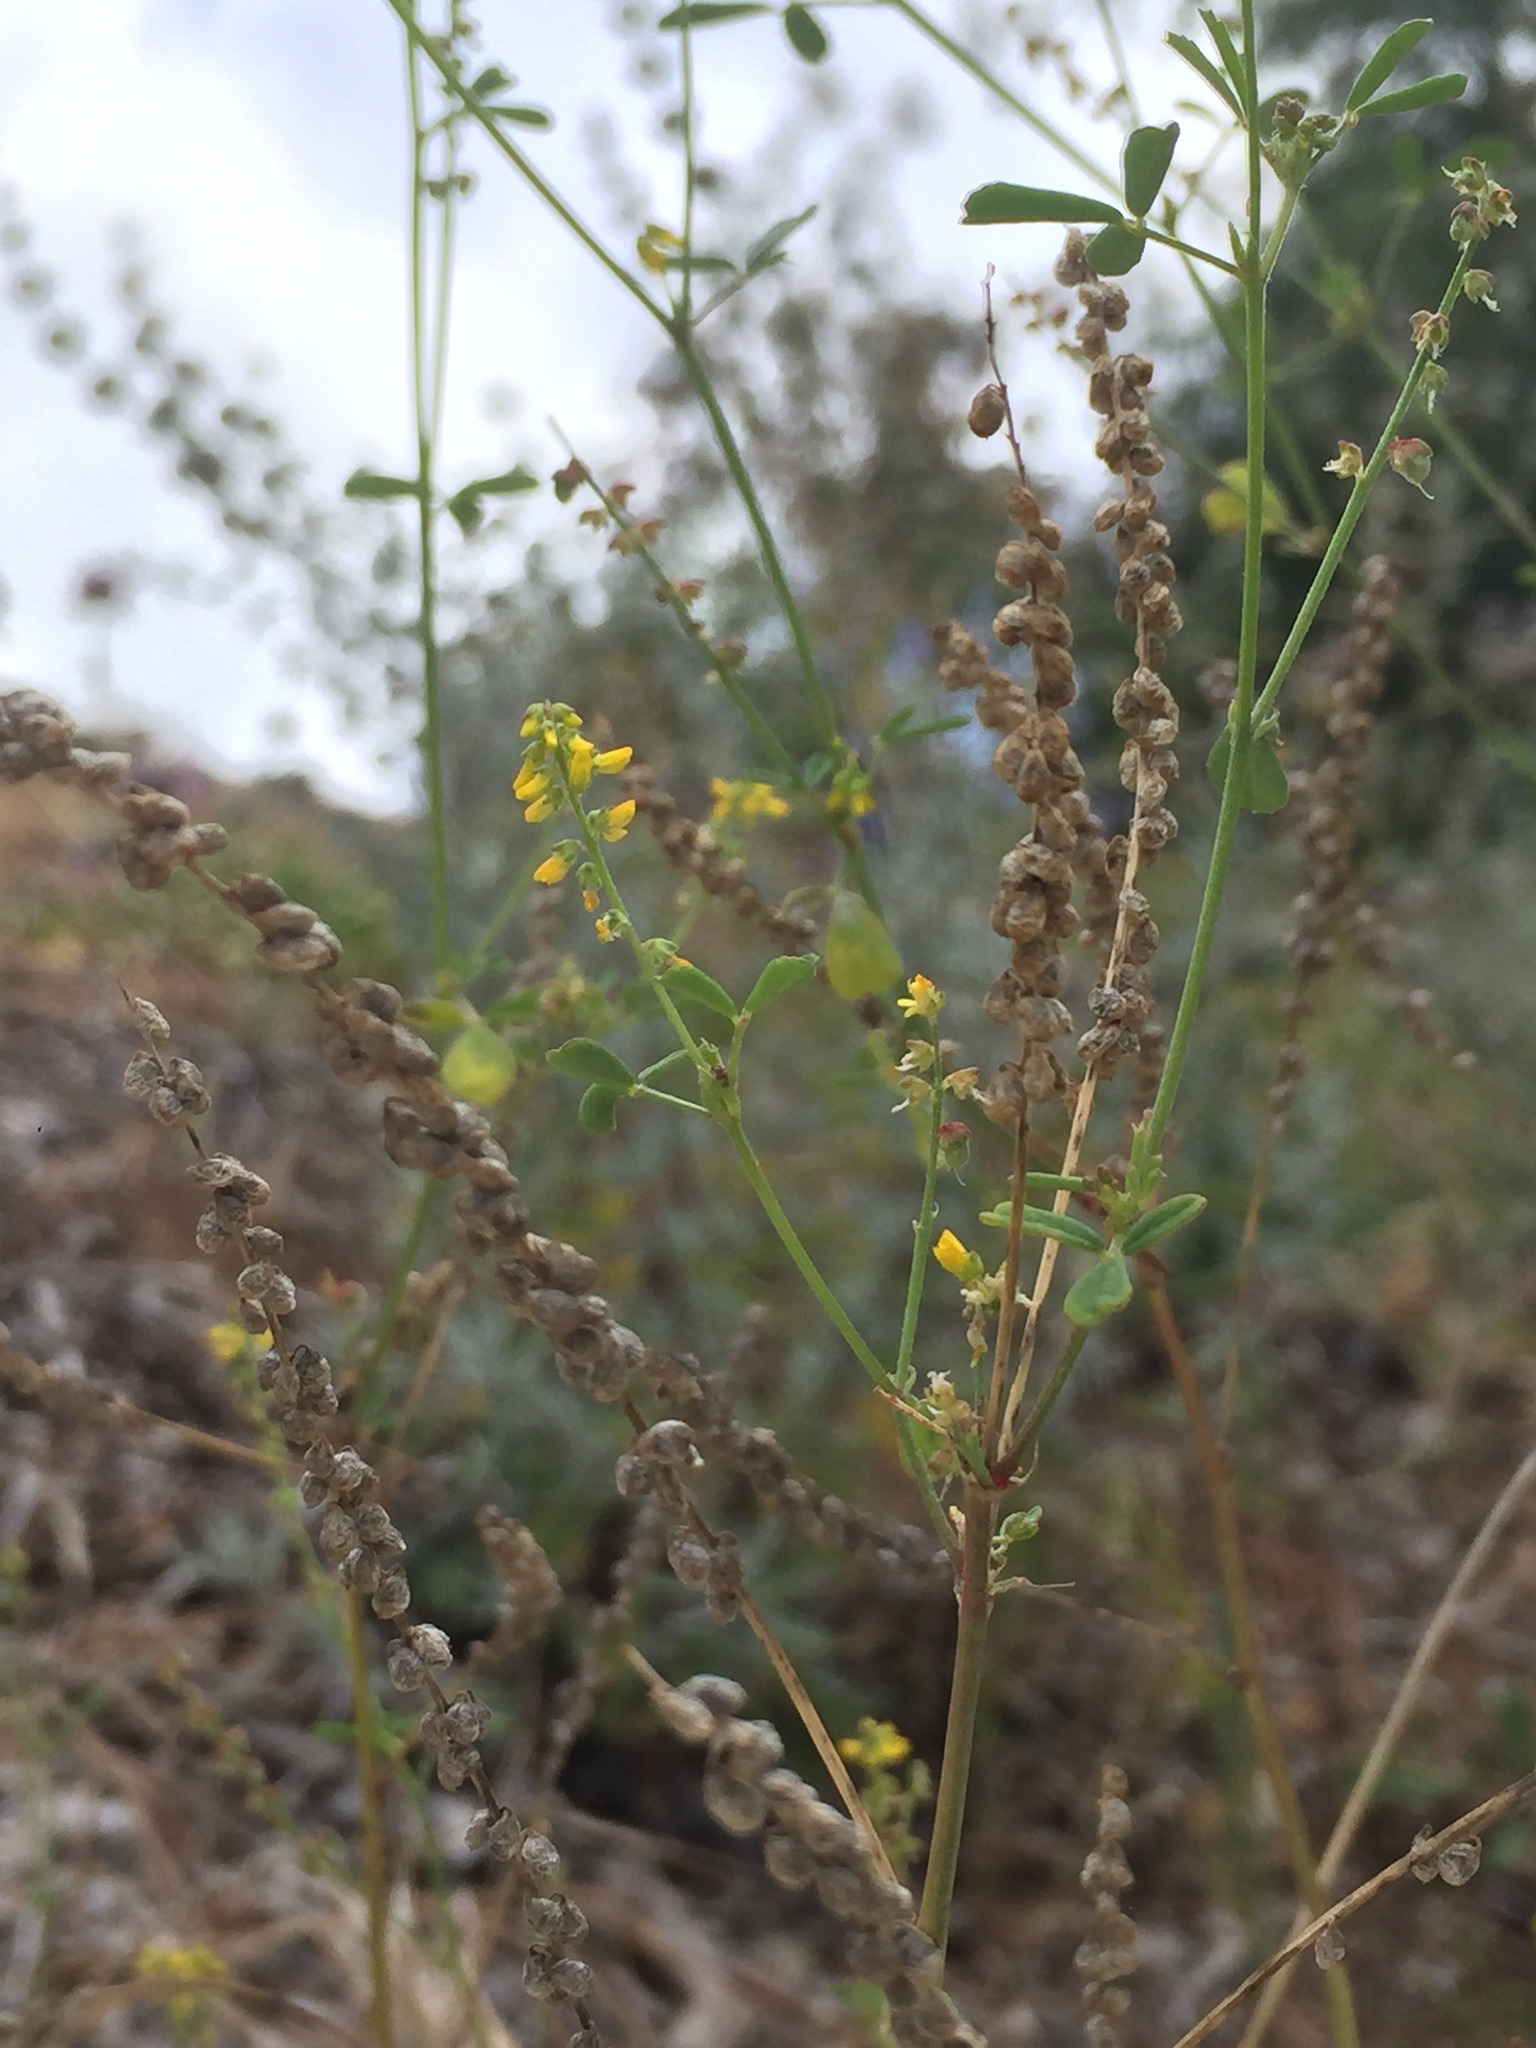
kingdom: Plantae
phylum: Tracheophyta
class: Magnoliopsida
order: Fabales
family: Fabaceae
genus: Melilotus
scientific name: Melilotus indicus
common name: Small melilot
